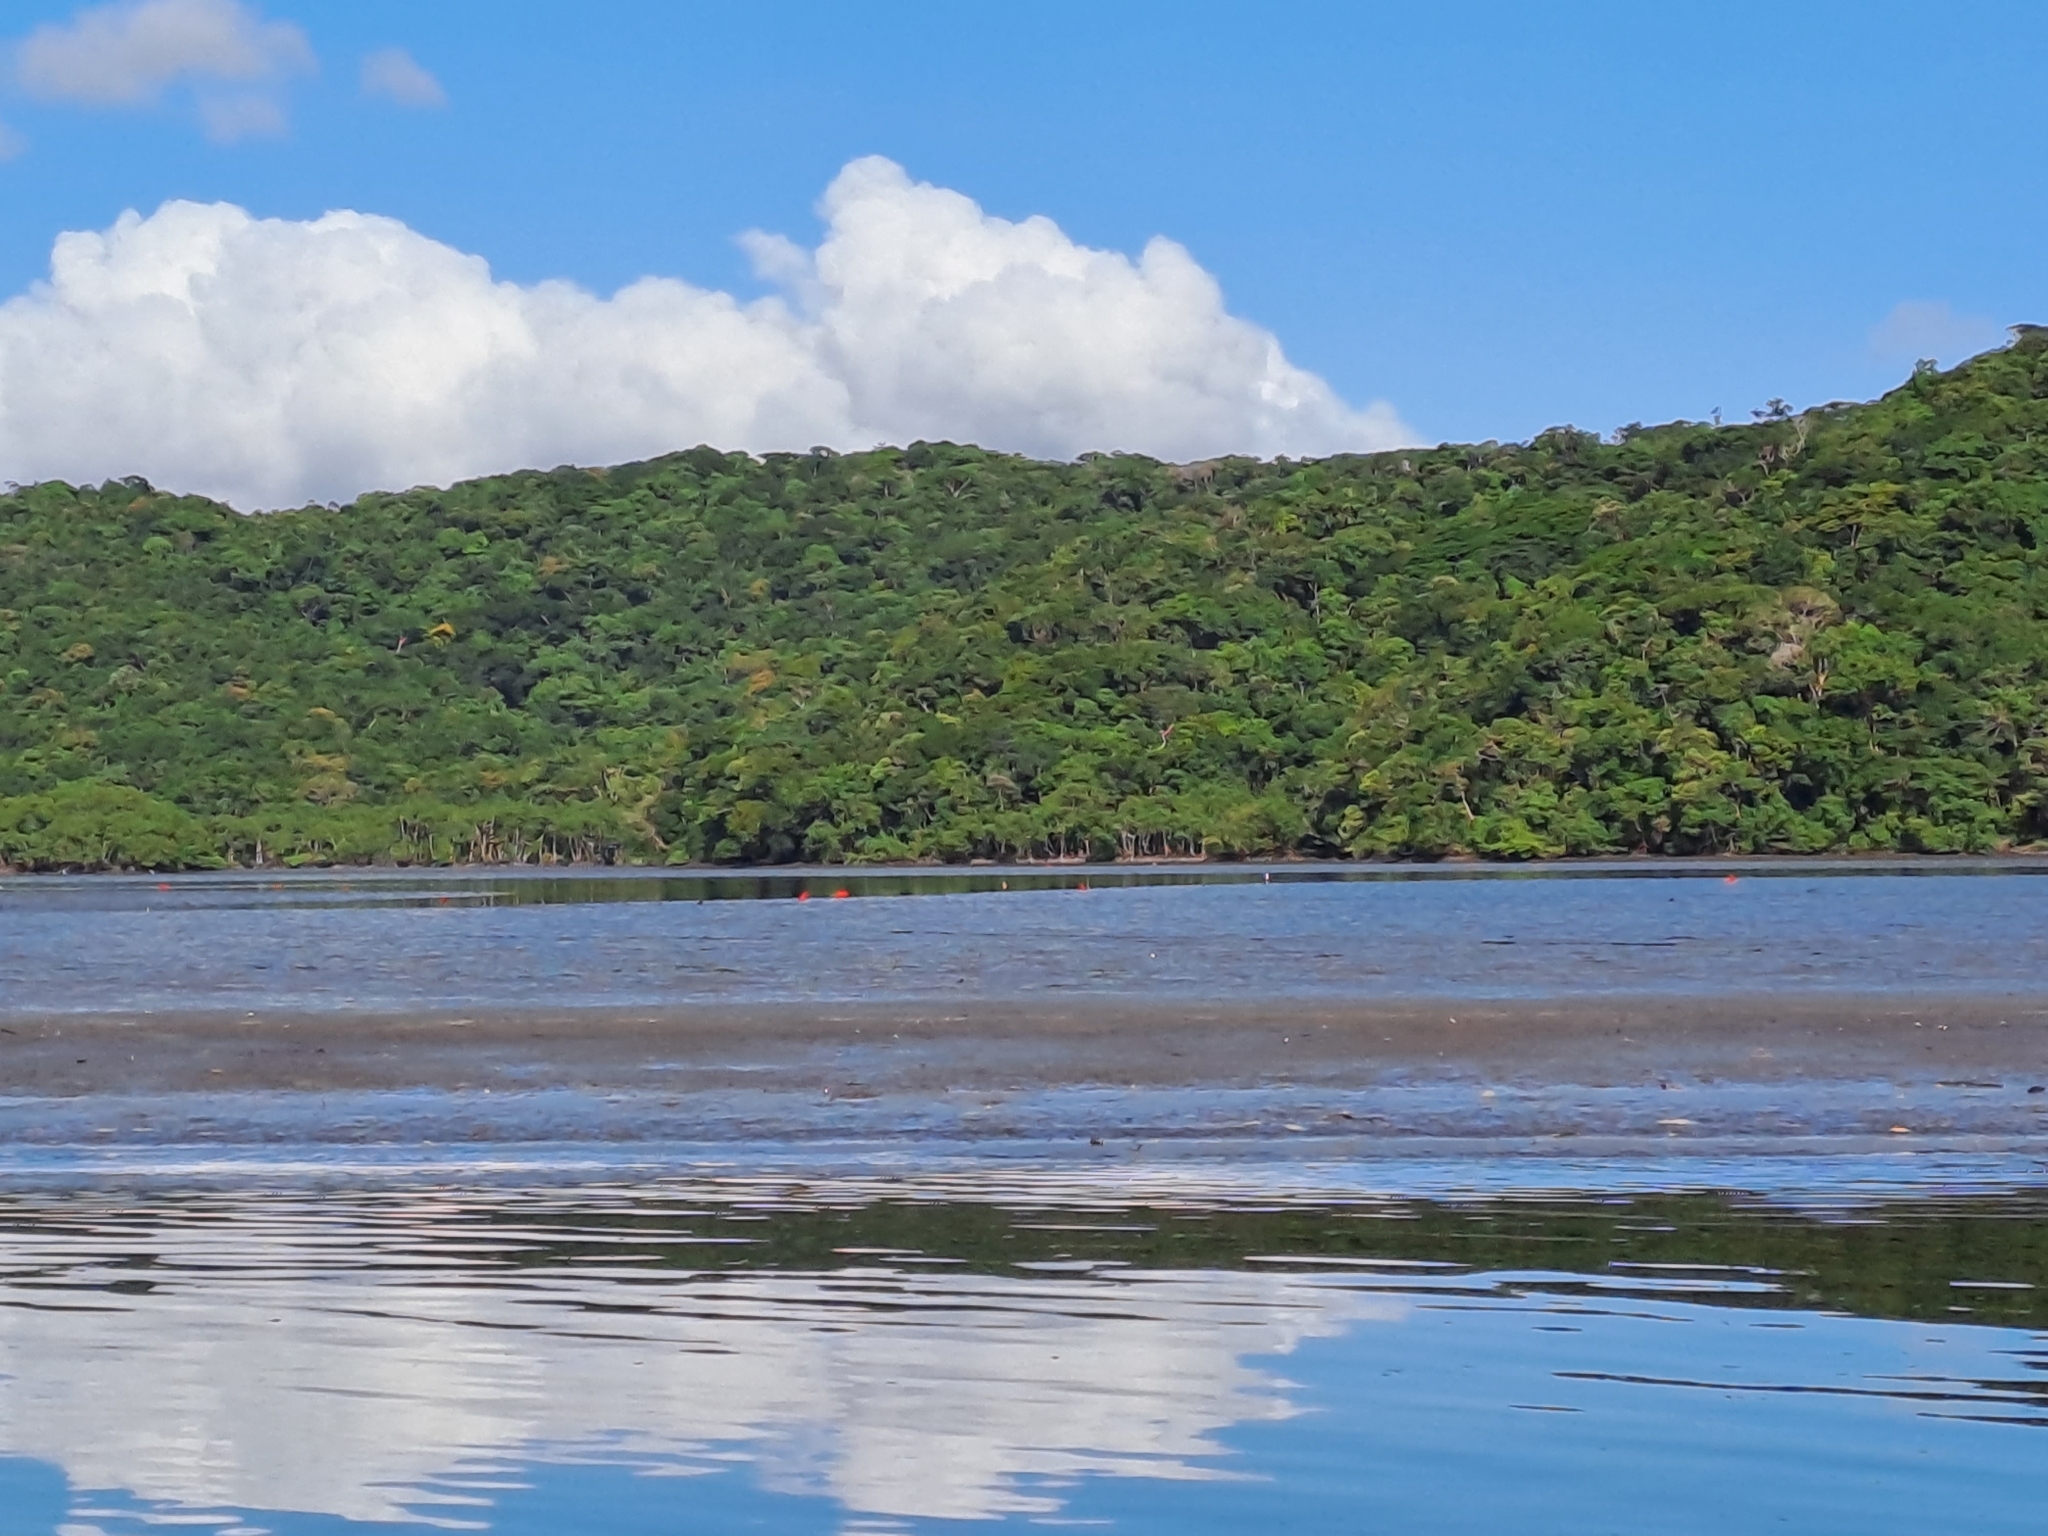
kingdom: Animalia
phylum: Chordata
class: Aves
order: Pelecaniformes
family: Threskiornithidae
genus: Eudocimus
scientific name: Eudocimus ruber
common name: Scarlet ibis
